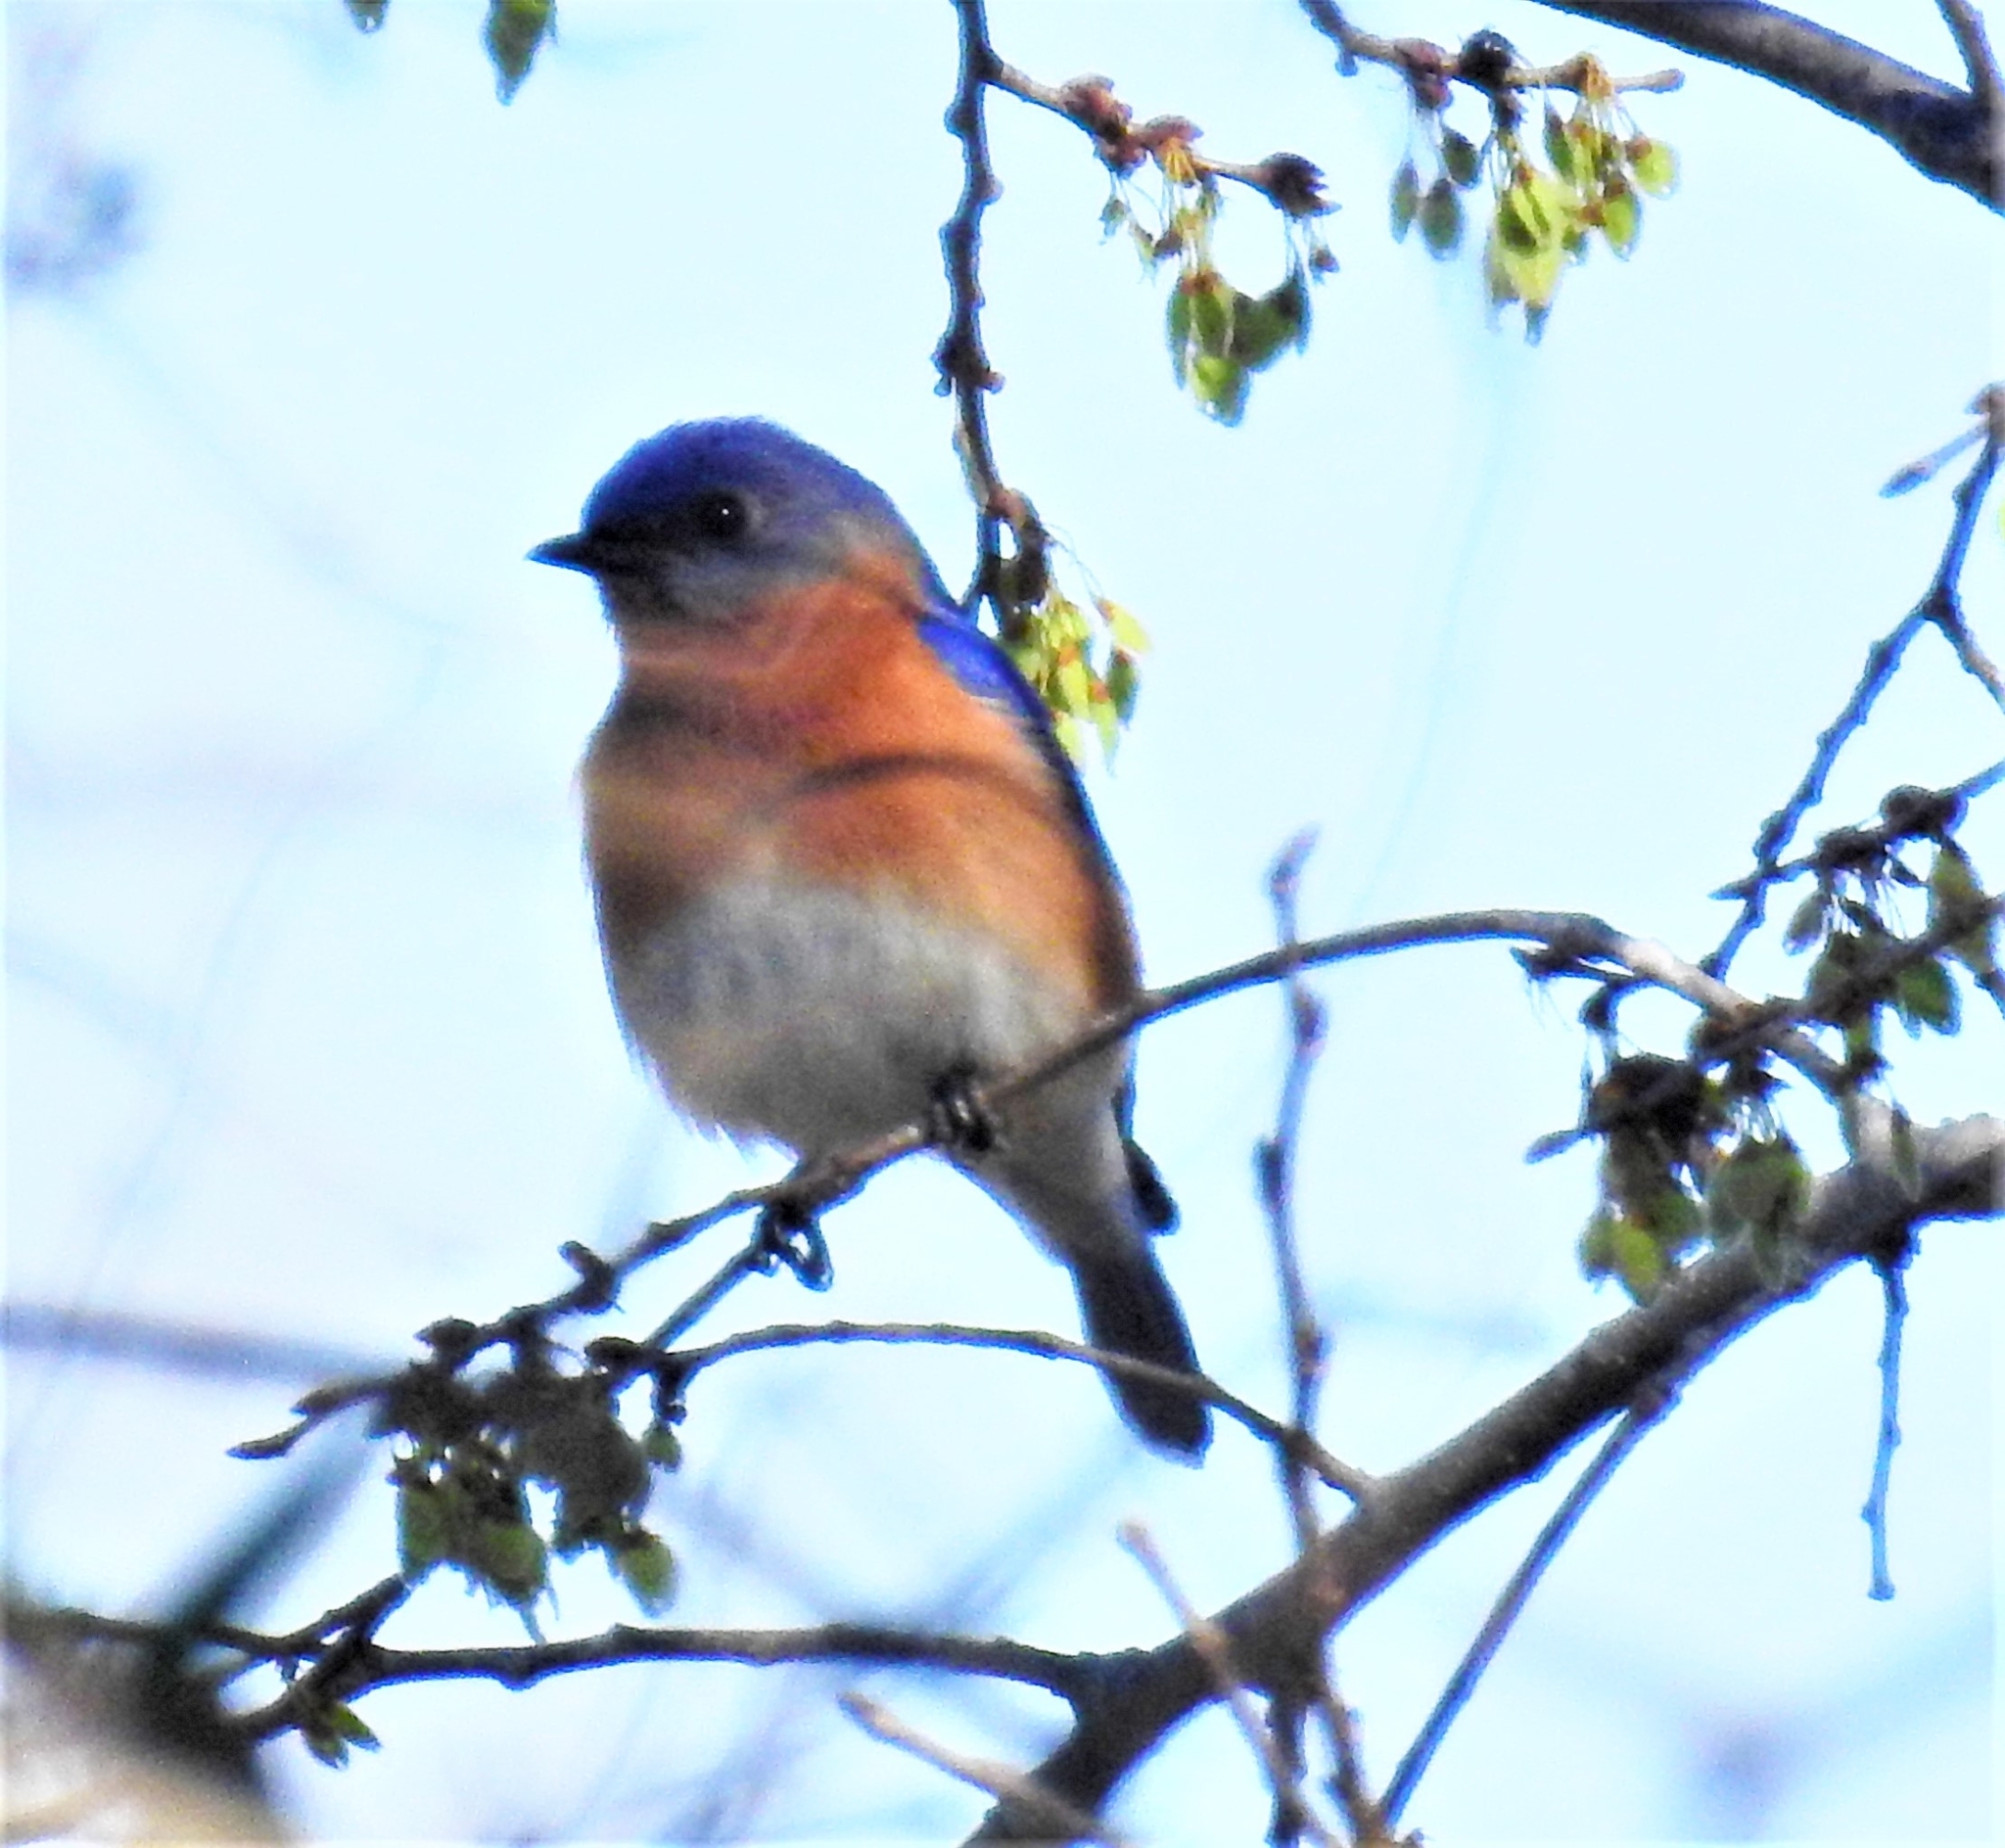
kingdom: Animalia
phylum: Chordata
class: Aves
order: Passeriformes
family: Turdidae
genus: Sialia
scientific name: Sialia sialis
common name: Eastern bluebird
